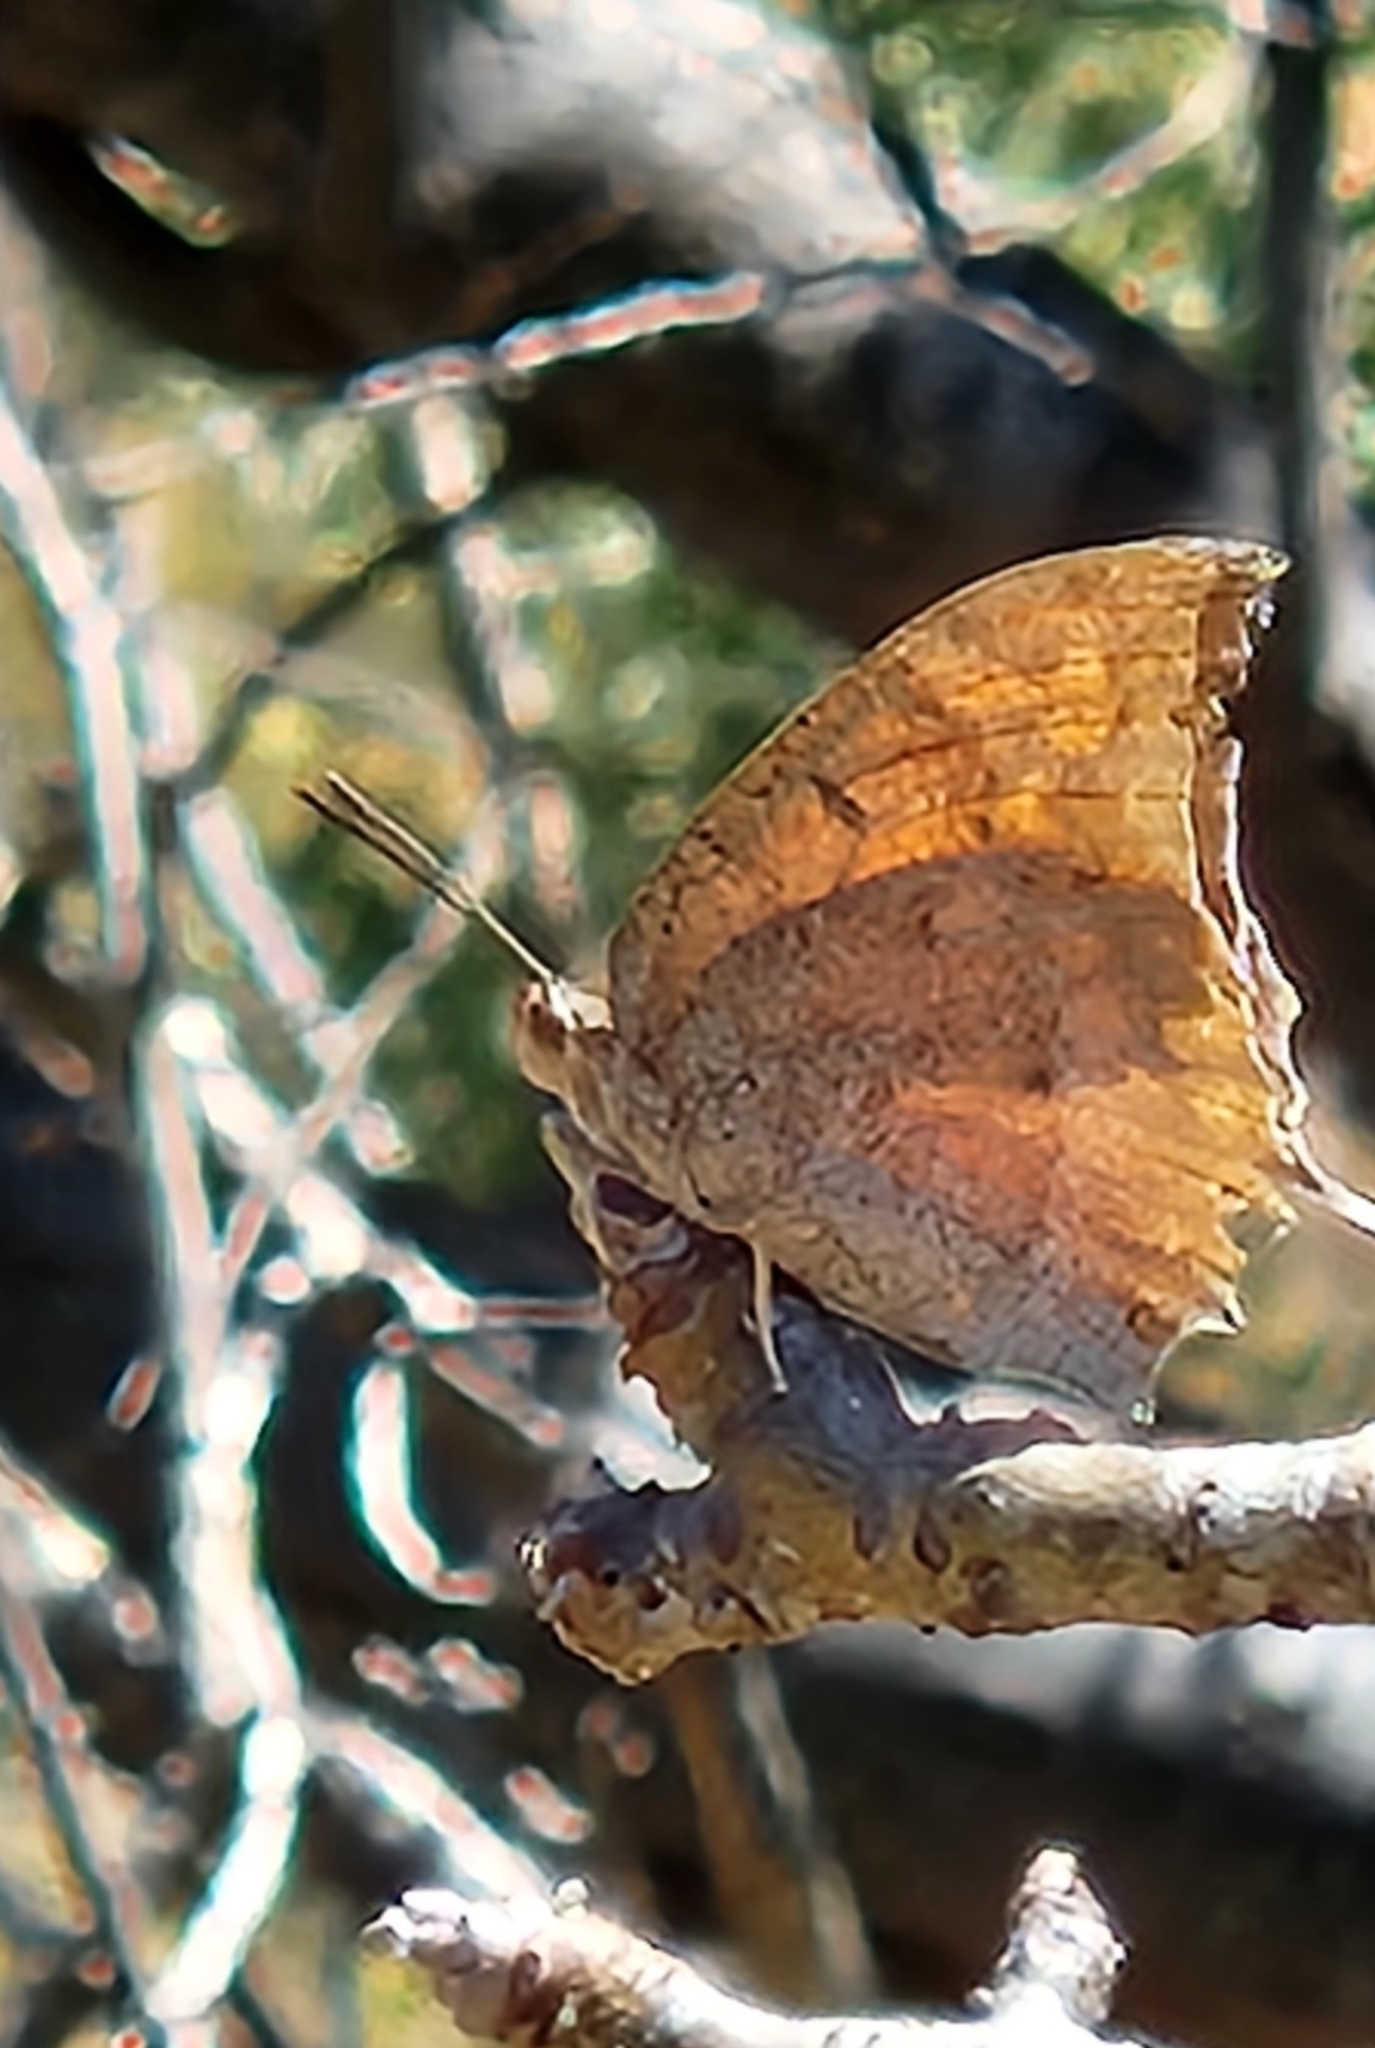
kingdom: Animalia
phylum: Arthropoda
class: Insecta
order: Lepidoptera
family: Nymphalidae
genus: Anaea
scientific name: Anaea aidea
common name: Tropical leafwing
